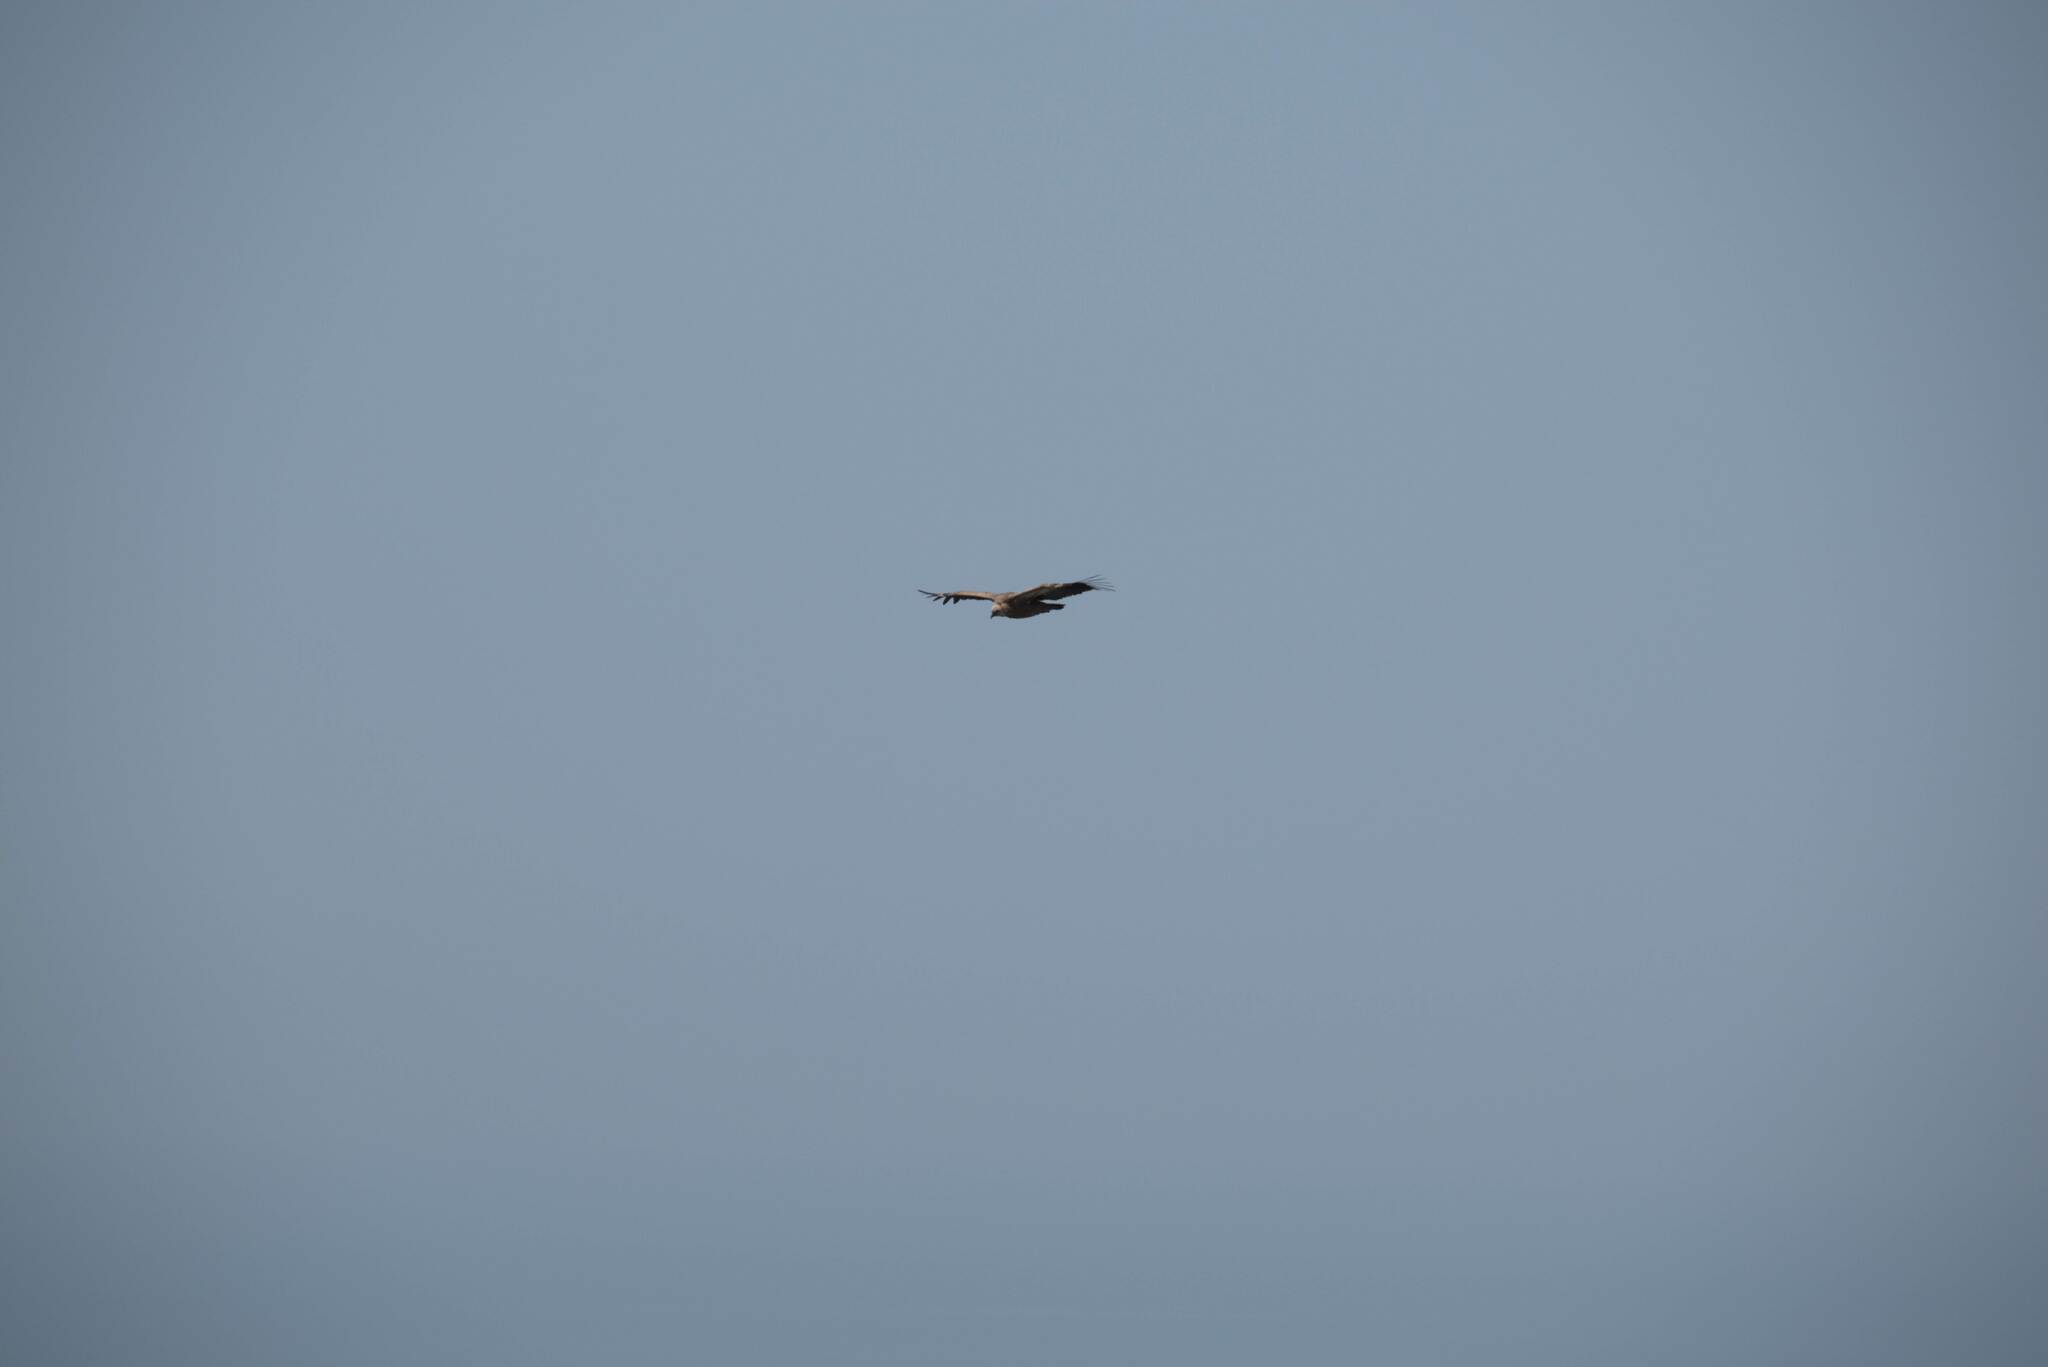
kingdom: Animalia
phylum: Chordata
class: Aves
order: Accipitriformes
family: Accipitridae
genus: Gyps
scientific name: Gyps fulvus
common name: Griffon vulture
